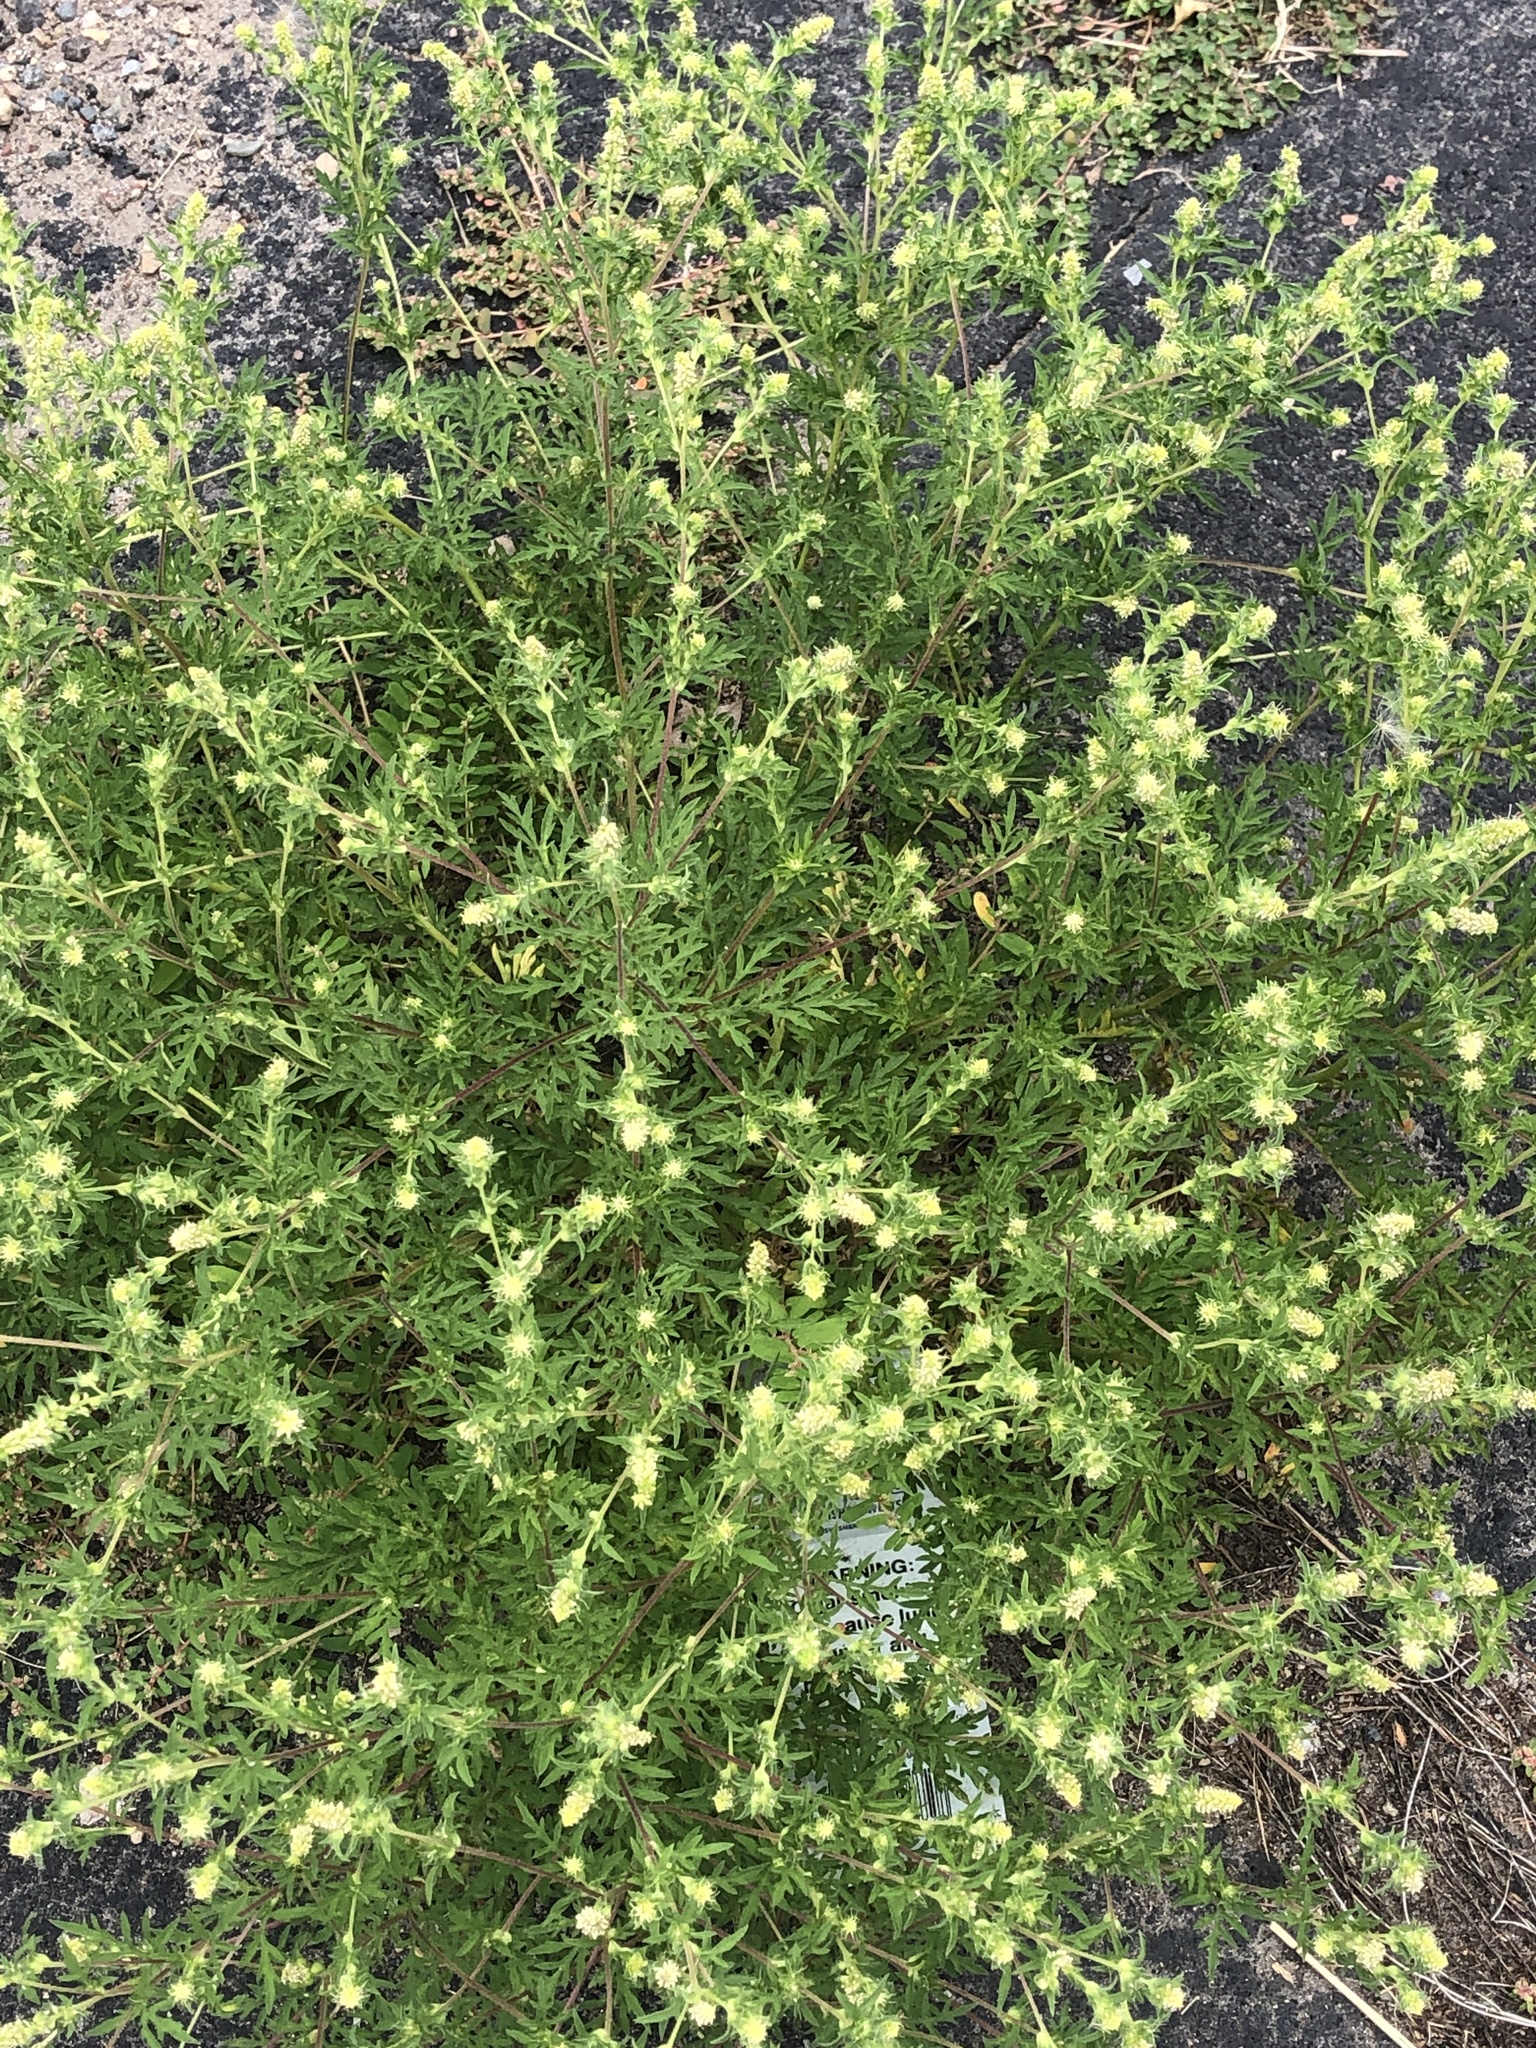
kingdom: Plantae
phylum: Tracheophyta
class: Magnoliopsida
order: Asterales
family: Asteraceae
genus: Ambrosia
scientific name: Ambrosia artemisiifolia
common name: Annual ragweed
